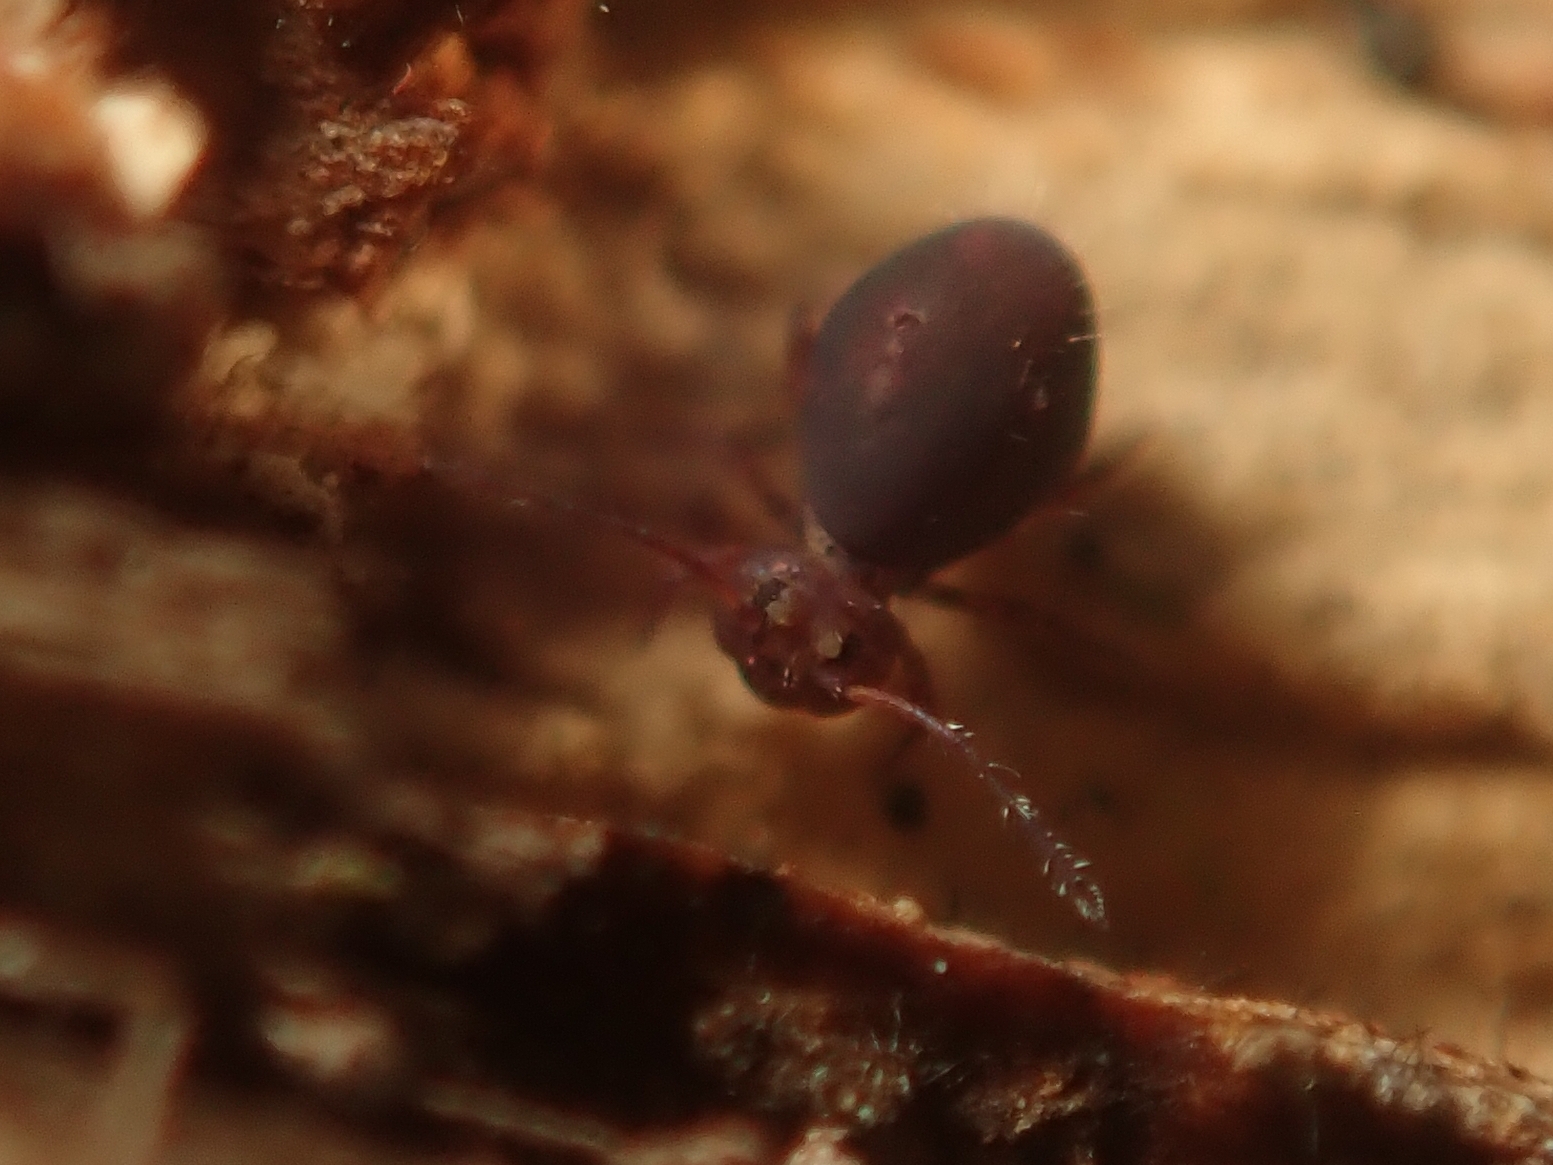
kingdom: Animalia
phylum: Arthropoda
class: Collembola
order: Symphypleona
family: Dicyrtomidae
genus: Dicyrtoma
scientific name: Dicyrtoma fusca
